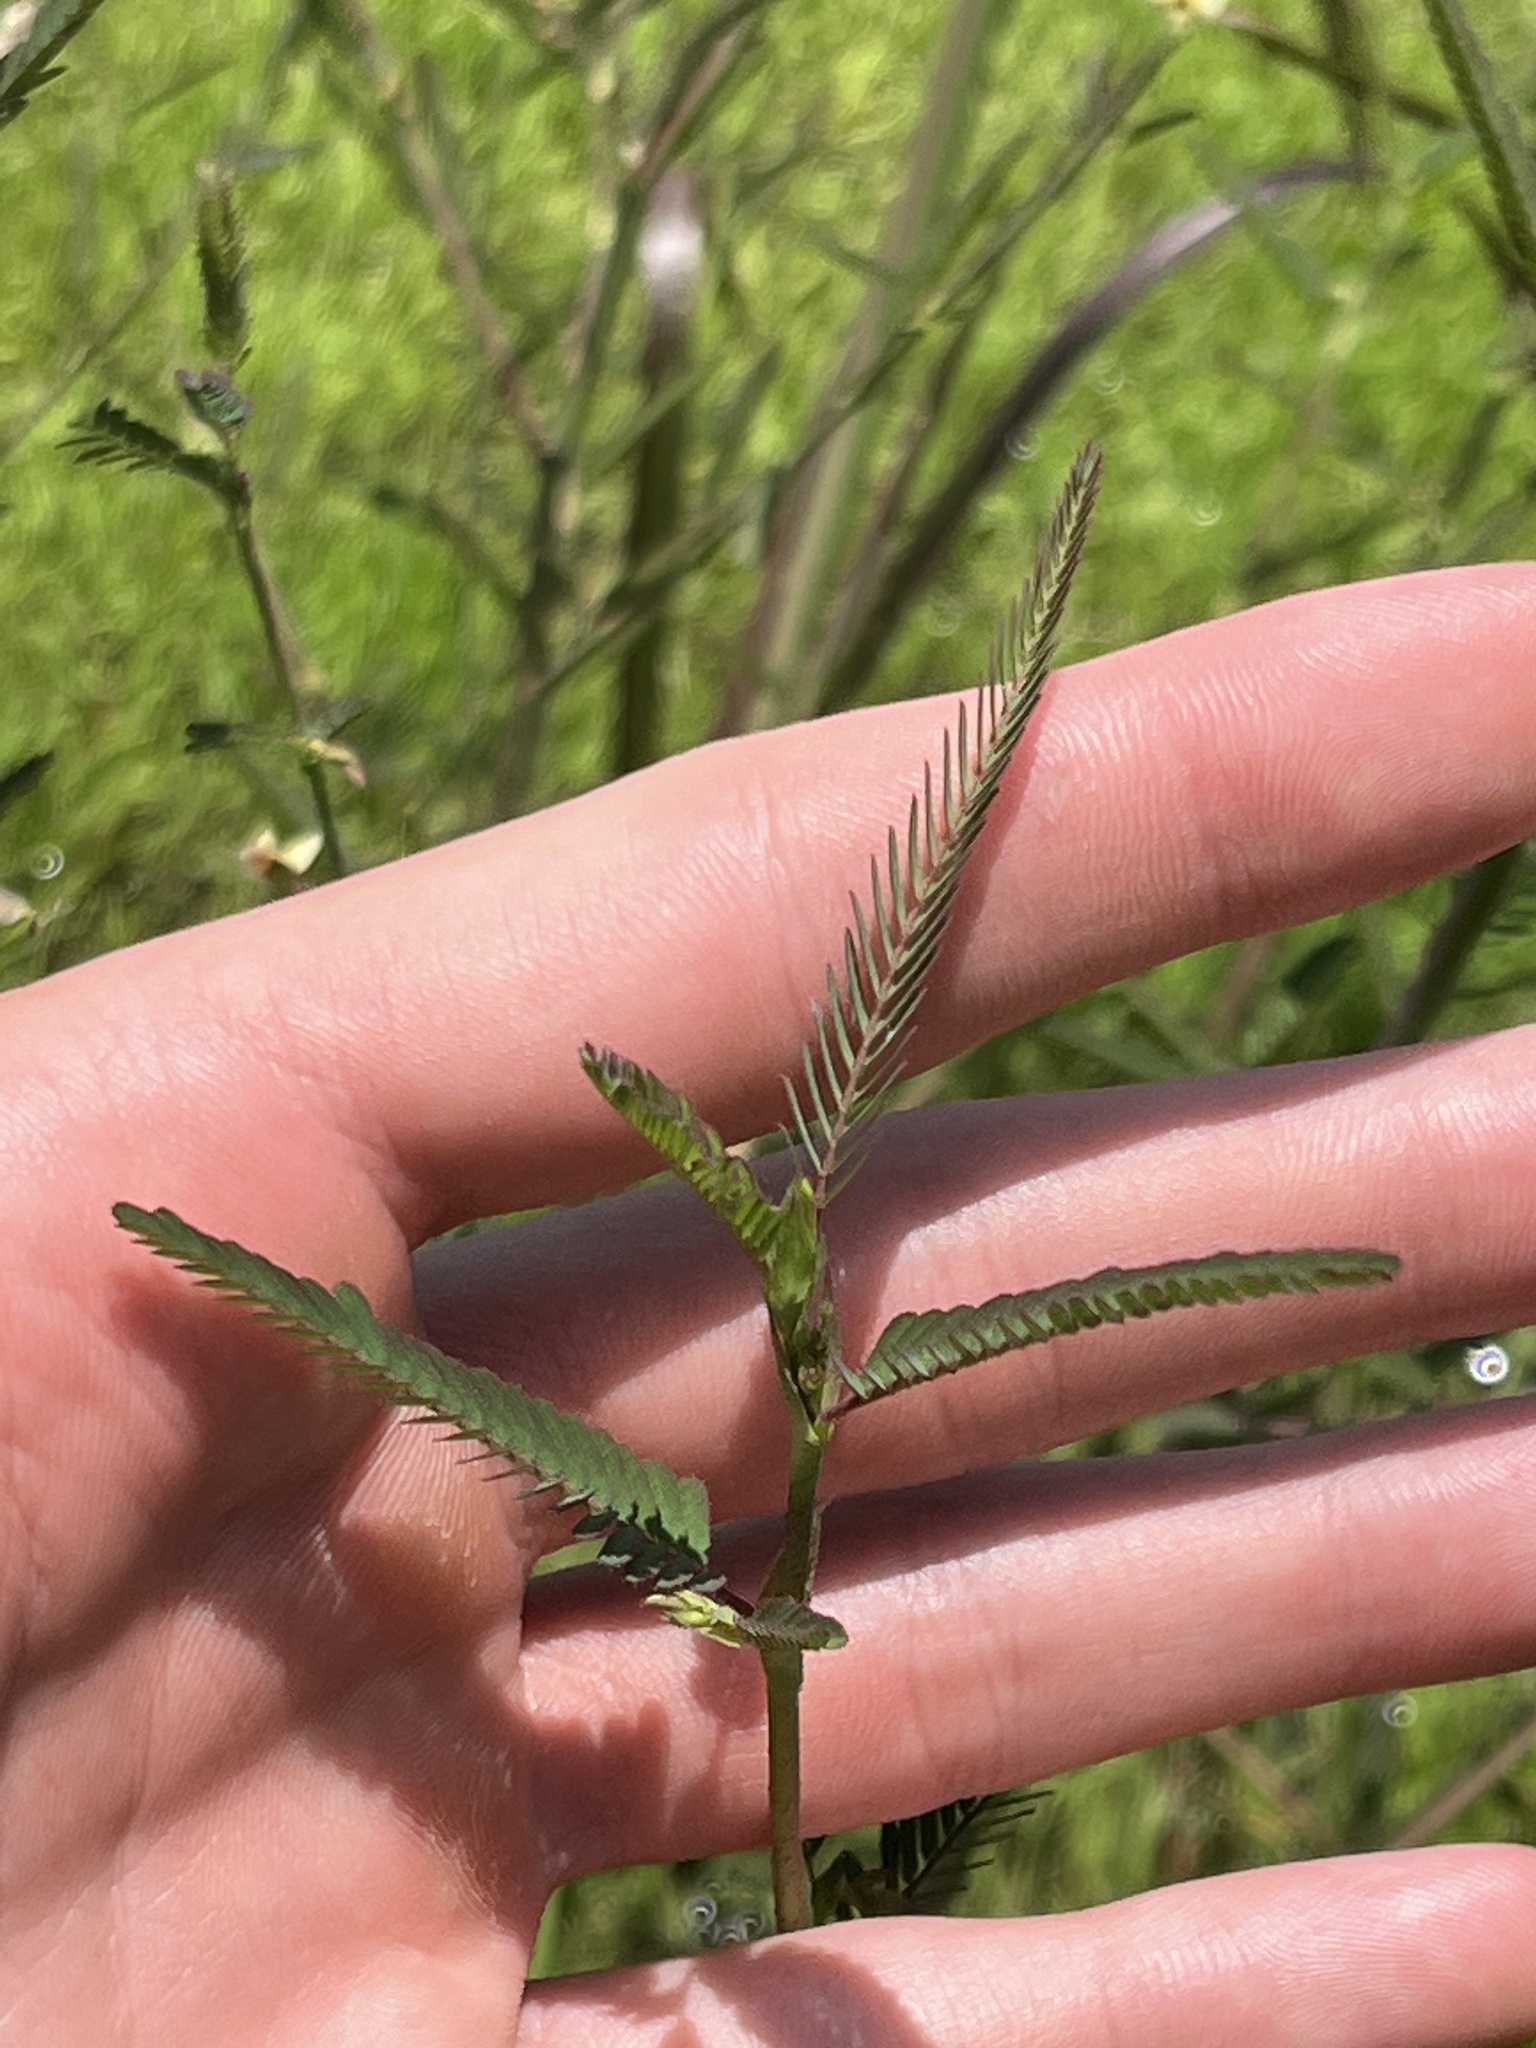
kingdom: Plantae
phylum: Tracheophyta
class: Magnoliopsida
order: Fabales
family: Fabaceae
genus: Aeschynomene
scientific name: Aeschynomene indica
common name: Indian jointvetch
